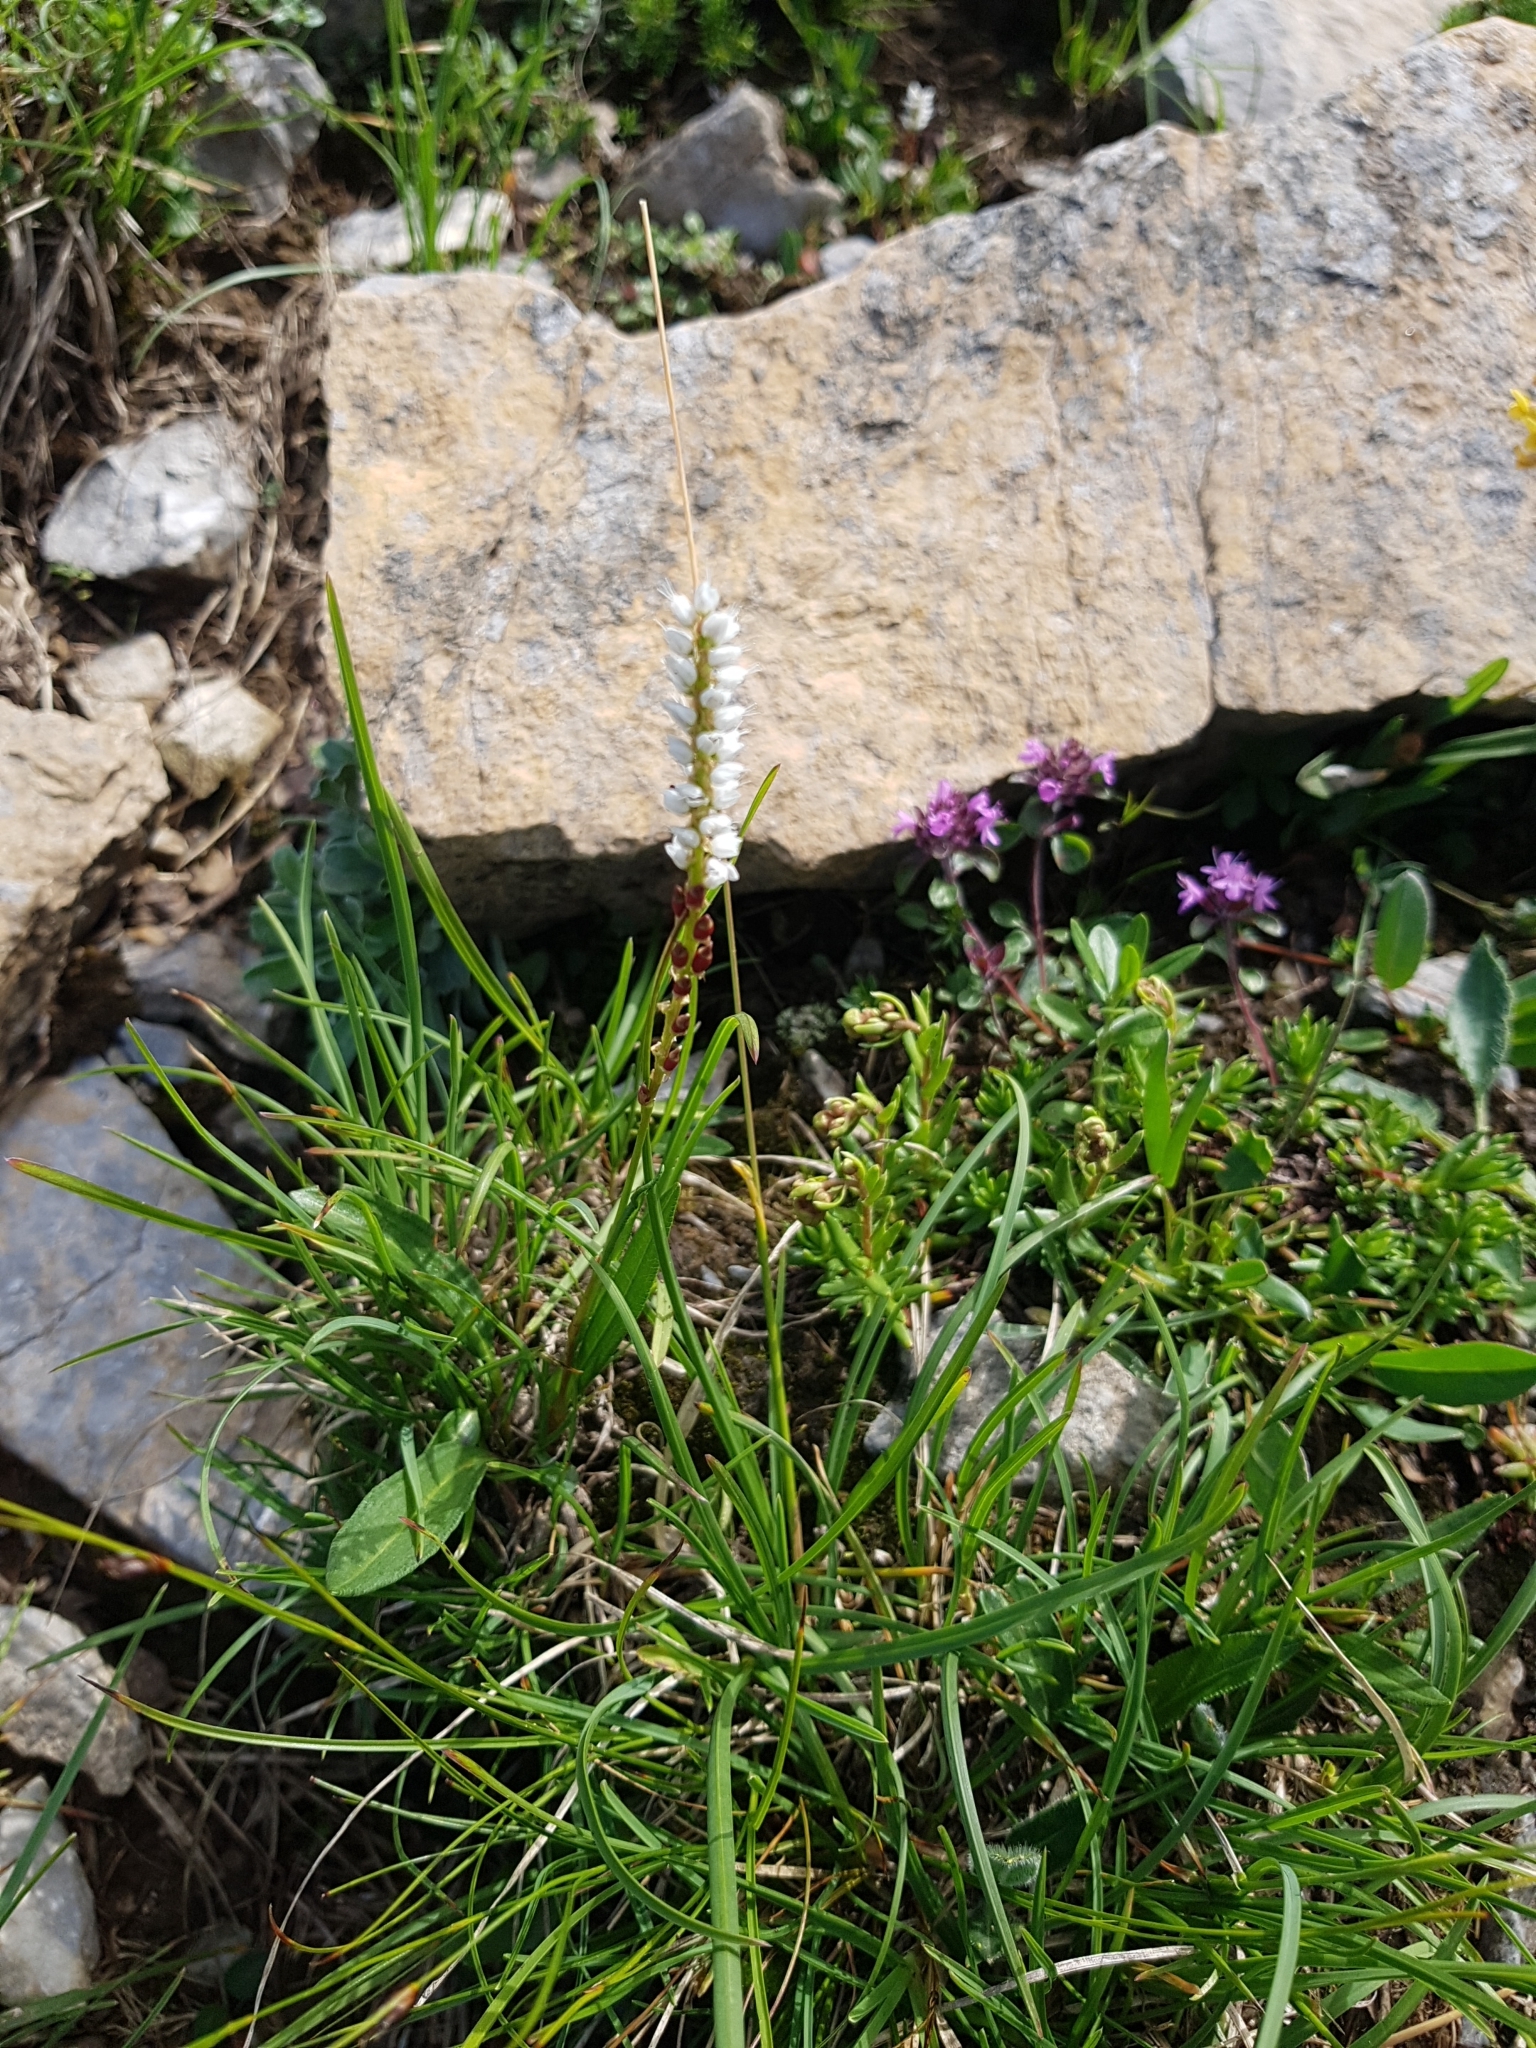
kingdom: Plantae
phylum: Tracheophyta
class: Magnoliopsida
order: Caryophyllales
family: Polygonaceae
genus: Bistorta
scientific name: Bistorta vivipara
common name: Alpine bistort
